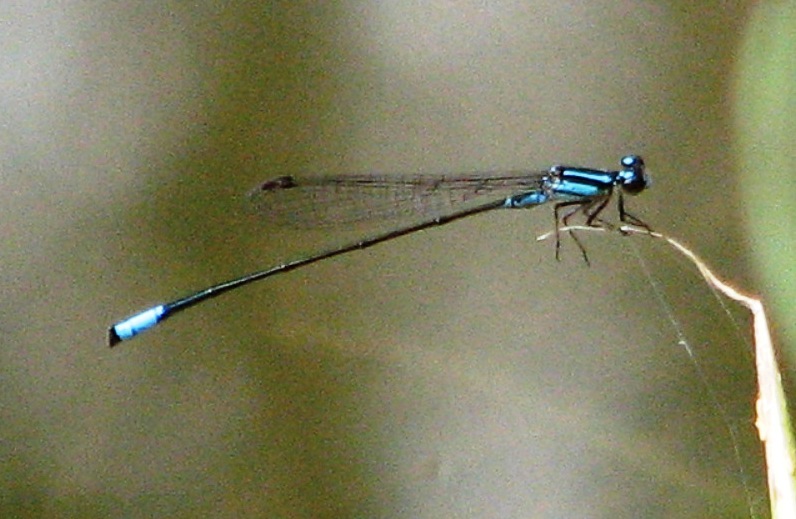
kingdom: Animalia
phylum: Arthropoda
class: Insecta
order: Odonata
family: Coenagrionidae
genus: Acanthagrion
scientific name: Acanthagrion quadratum
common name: Mexican wedgetail
